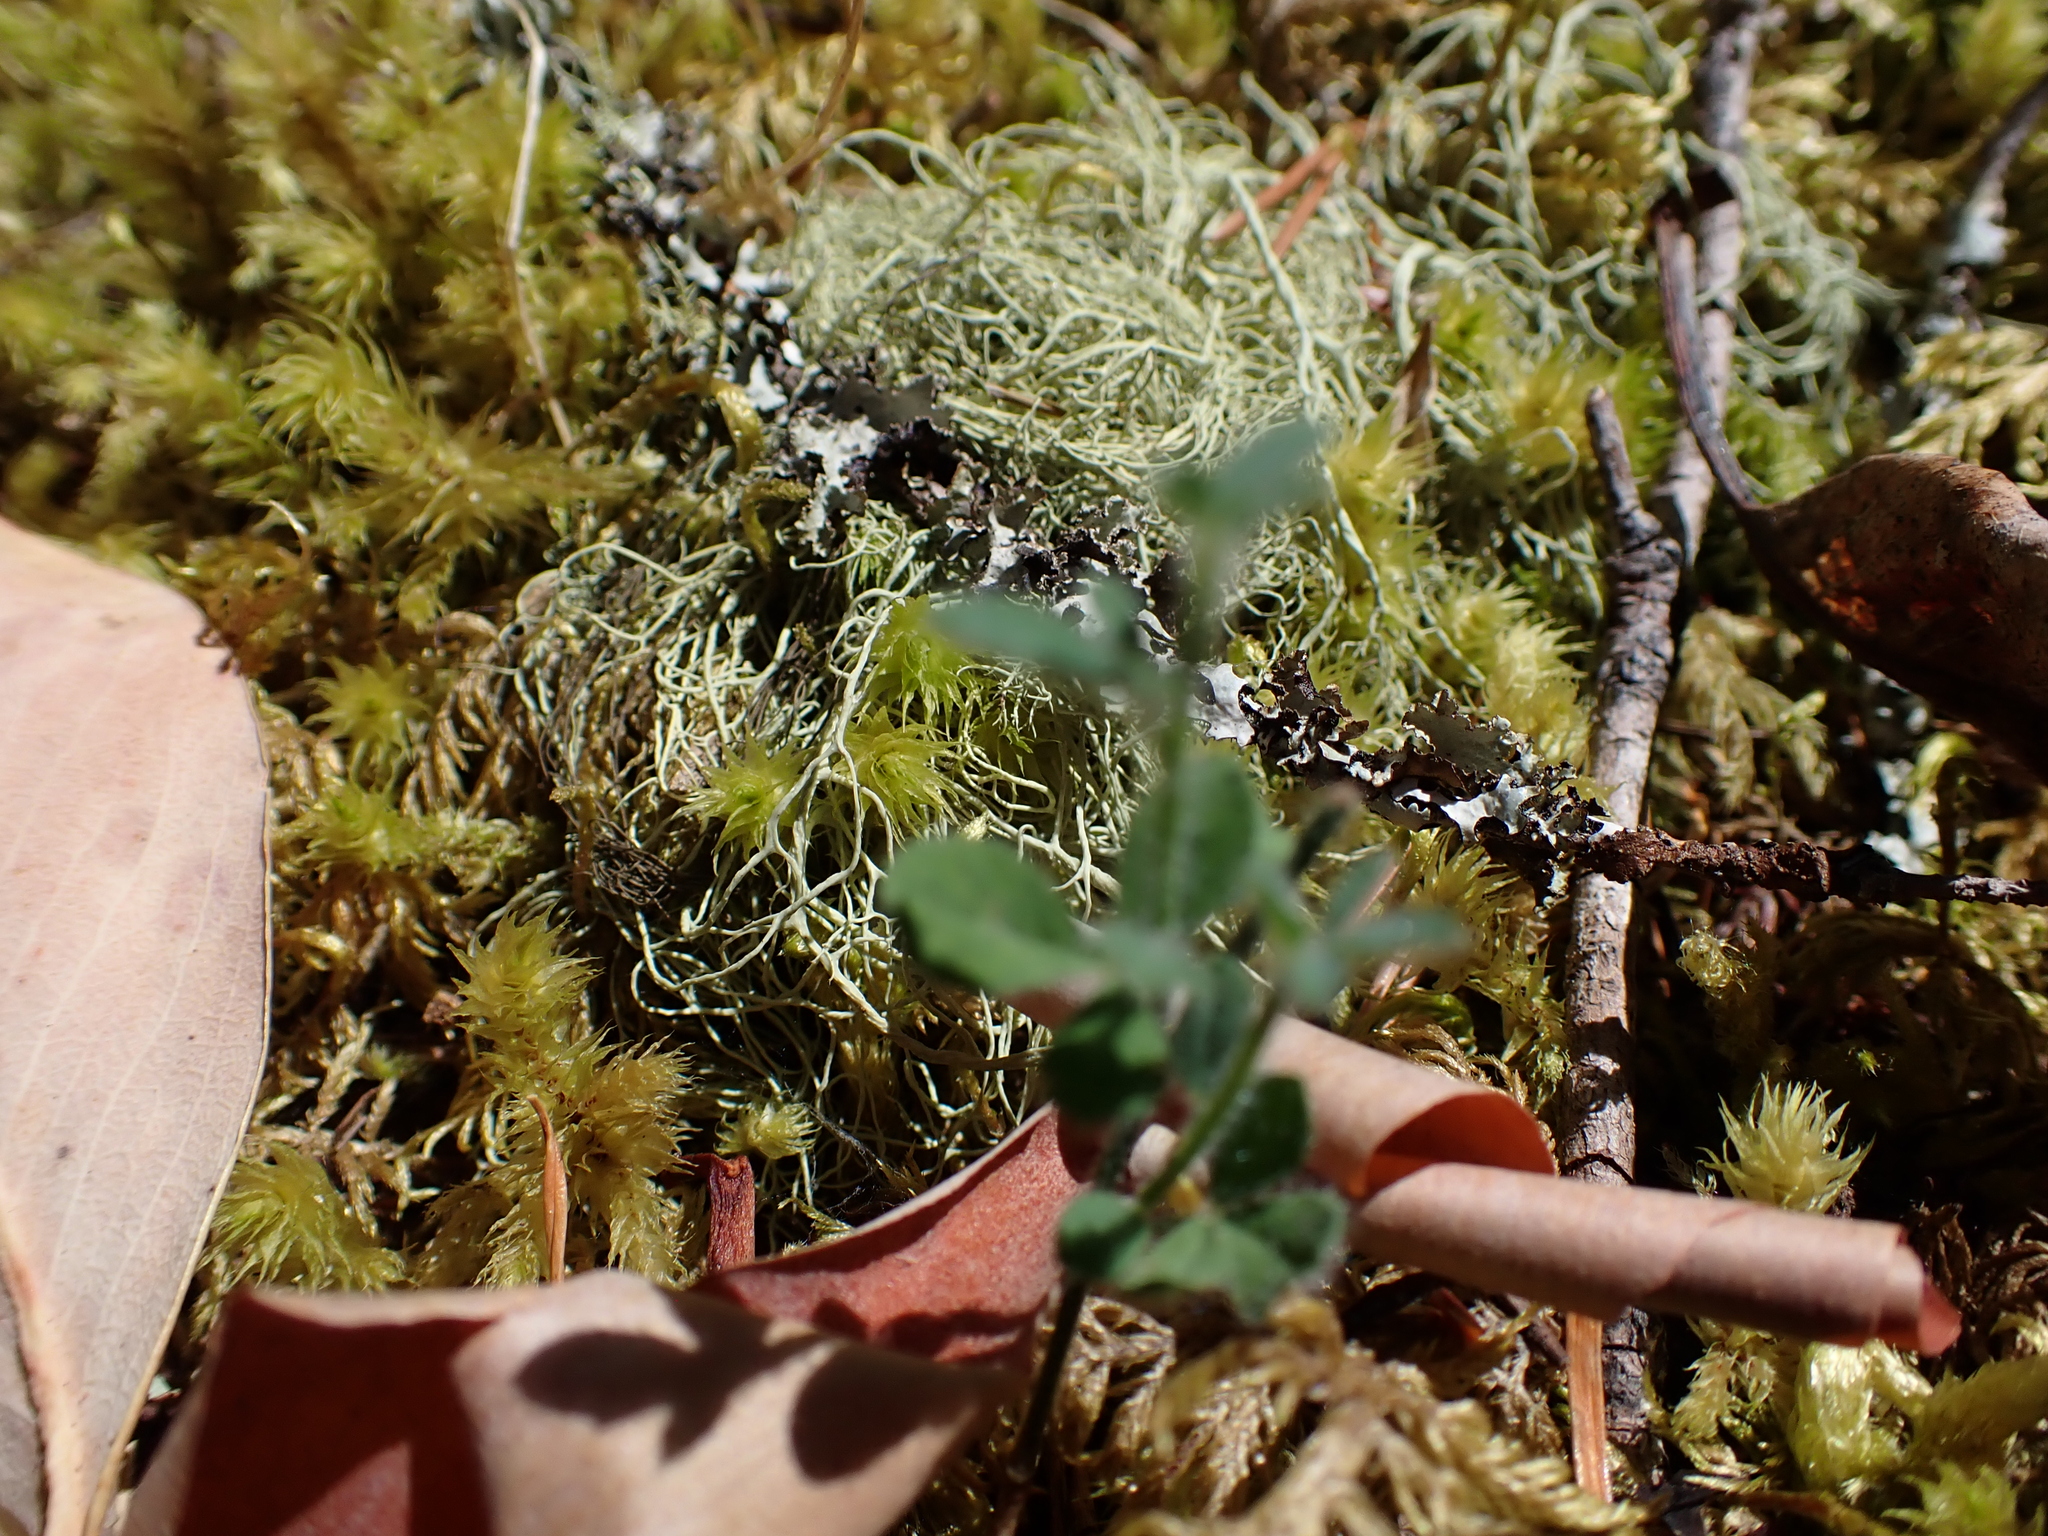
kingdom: Plantae
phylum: Tracheophyta
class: Magnoliopsida
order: Fabales
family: Fabaceae
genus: Cytisus
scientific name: Cytisus scoparius
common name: Scotch broom
